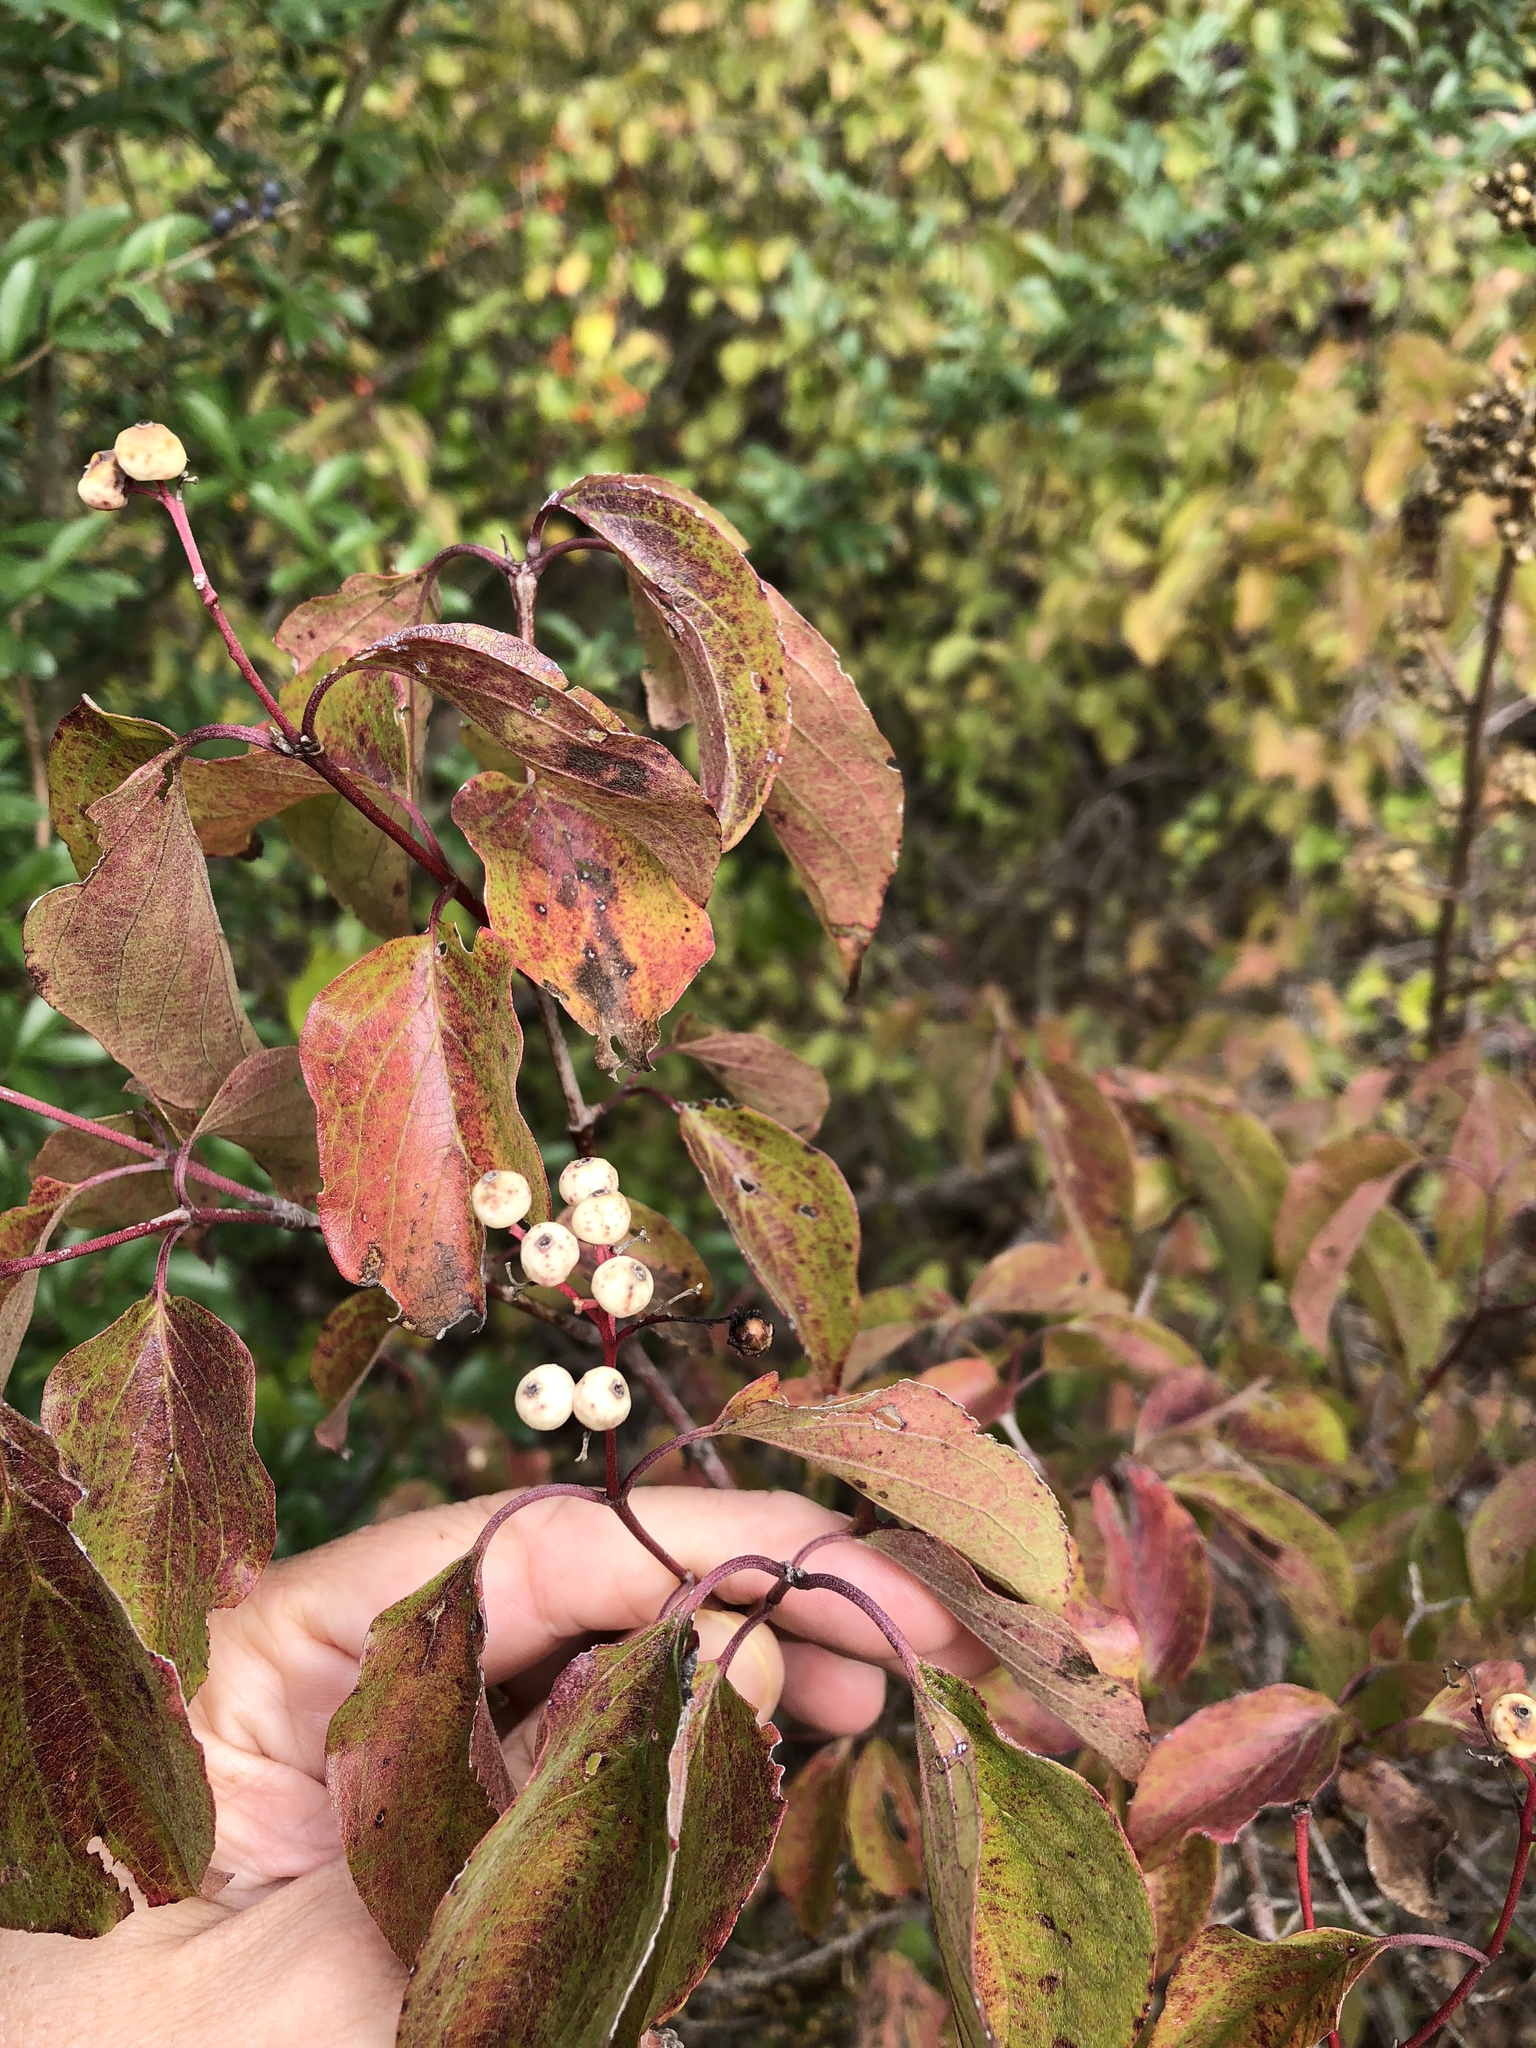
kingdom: Plantae
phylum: Tracheophyta
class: Magnoliopsida
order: Cornales
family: Cornaceae
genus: Cornus
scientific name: Cornus drummondii
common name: Rough-leaf dogwood
